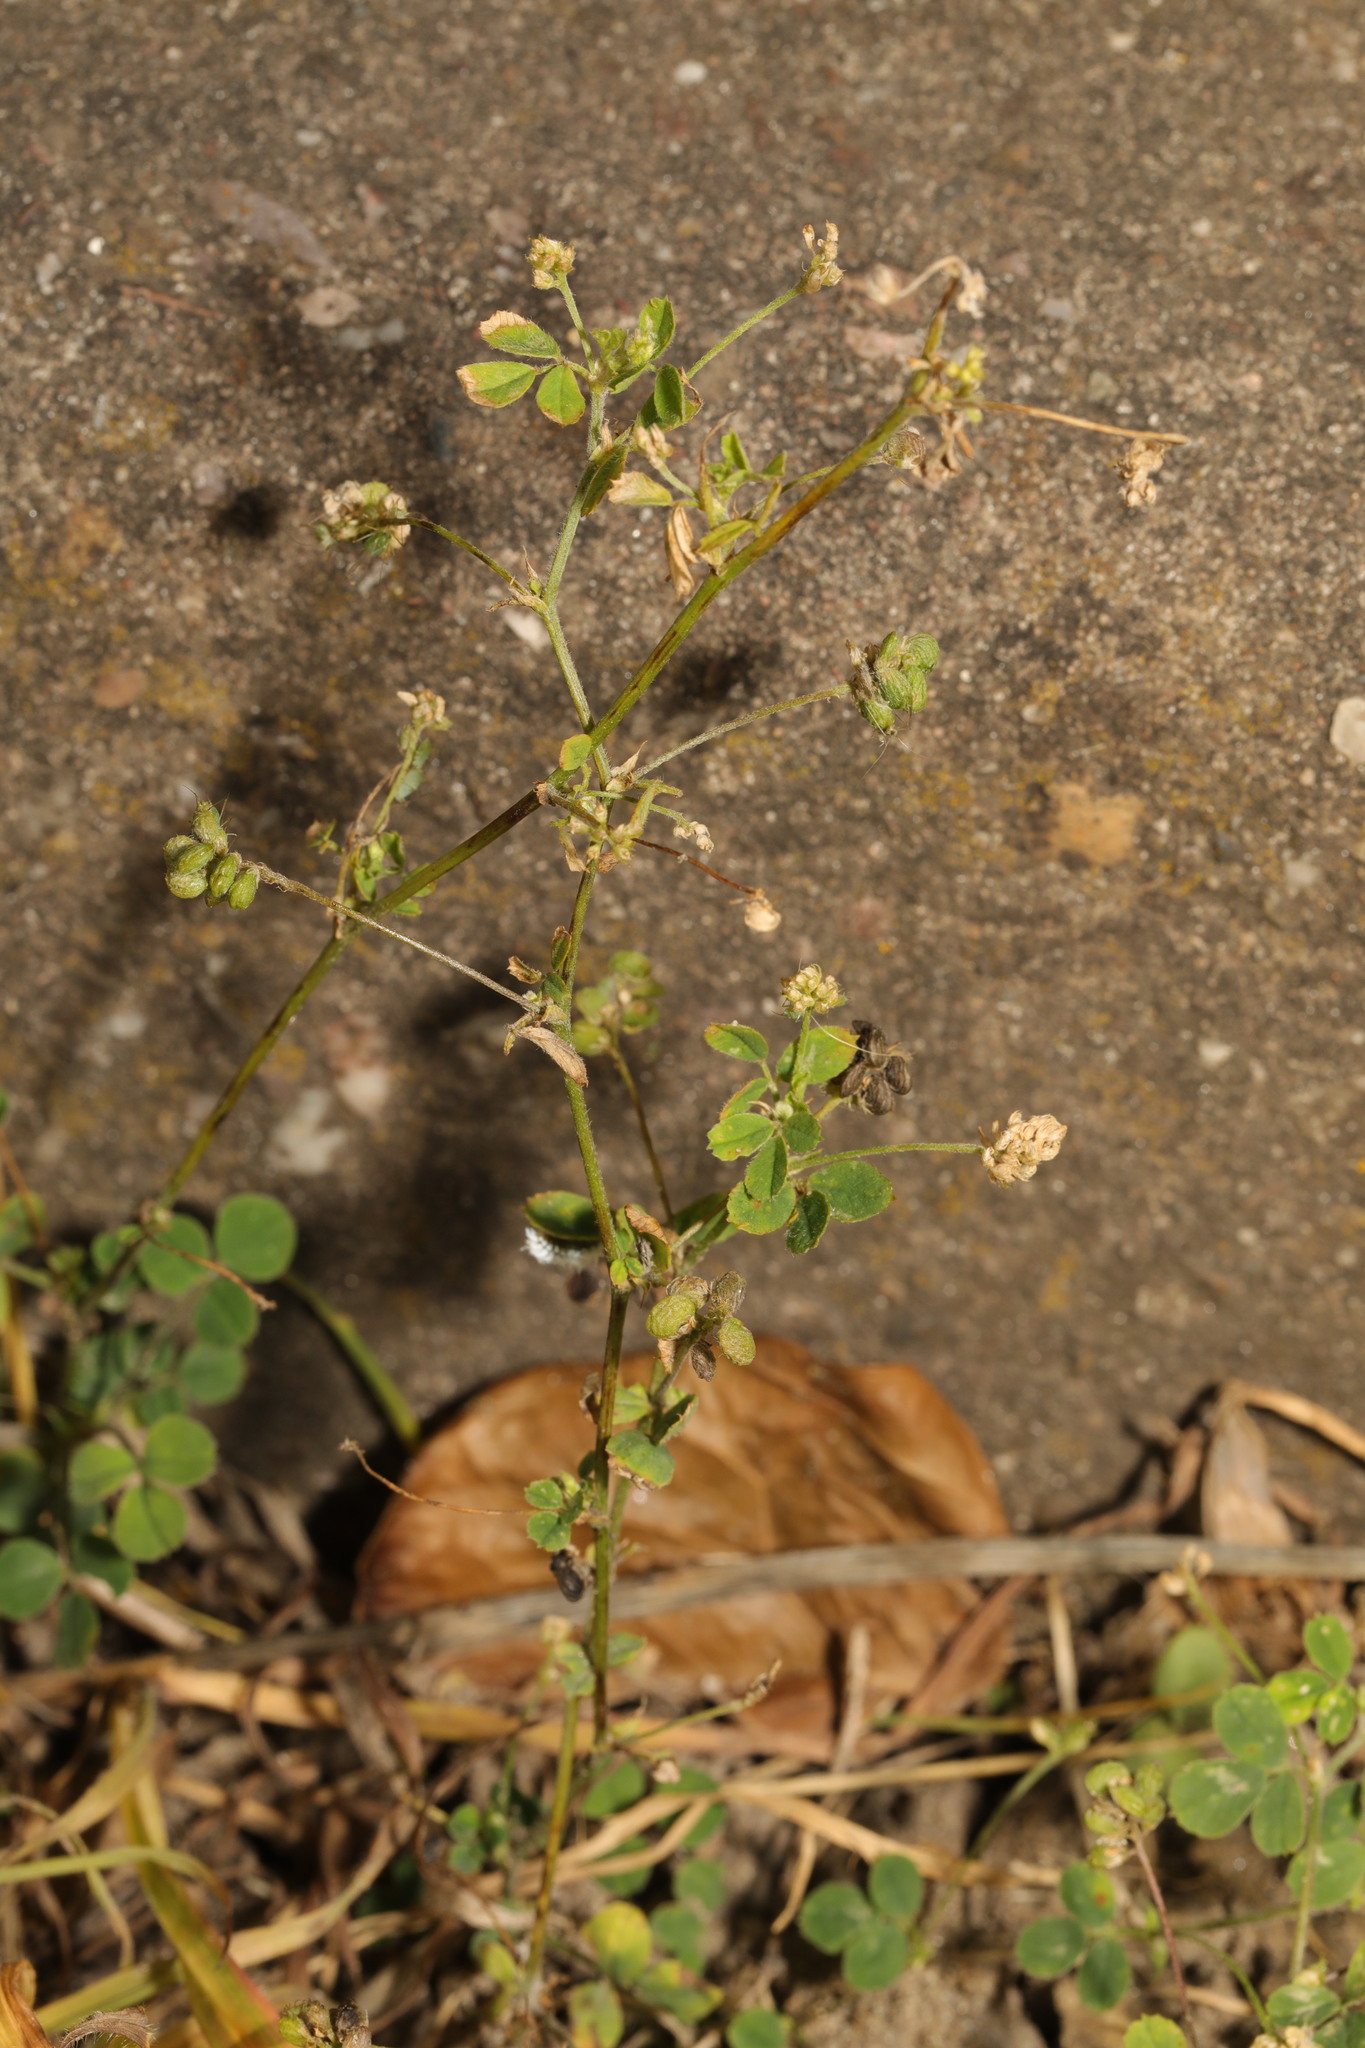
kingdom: Plantae
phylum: Tracheophyta
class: Magnoliopsida
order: Fabales
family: Fabaceae
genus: Medicago
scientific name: Medicago lupulina
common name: Black medick
